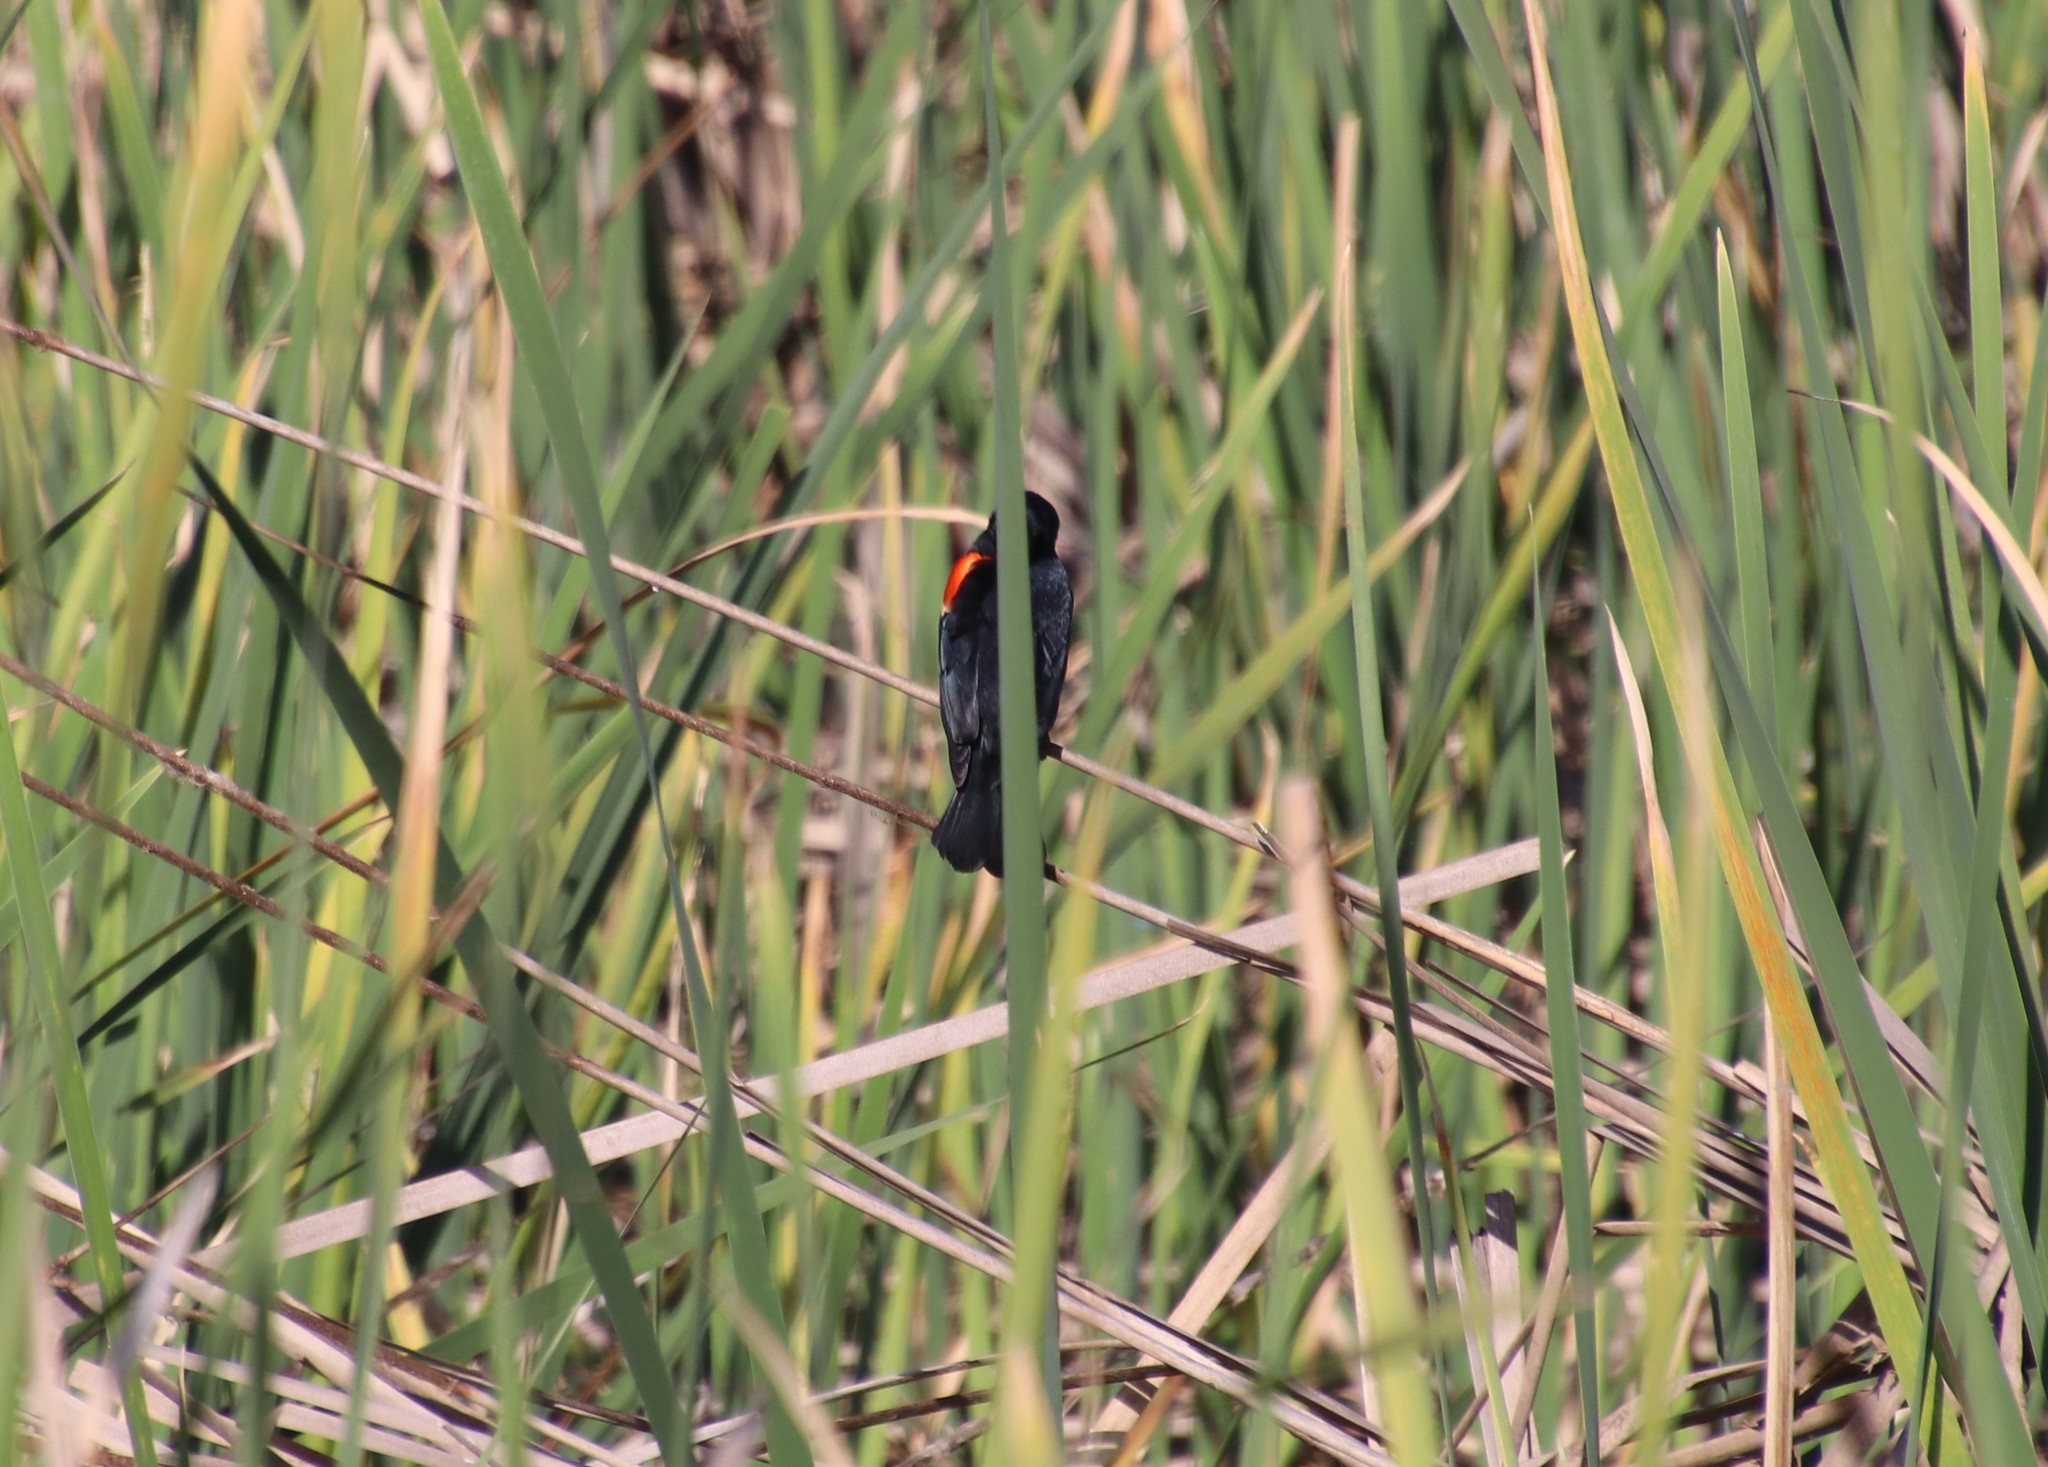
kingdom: Animalia
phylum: Chordata
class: Aves
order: Passeriformes
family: Icteridae
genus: Agelaius
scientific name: Agelaius phoeniceus
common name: Red-winged blackbird
